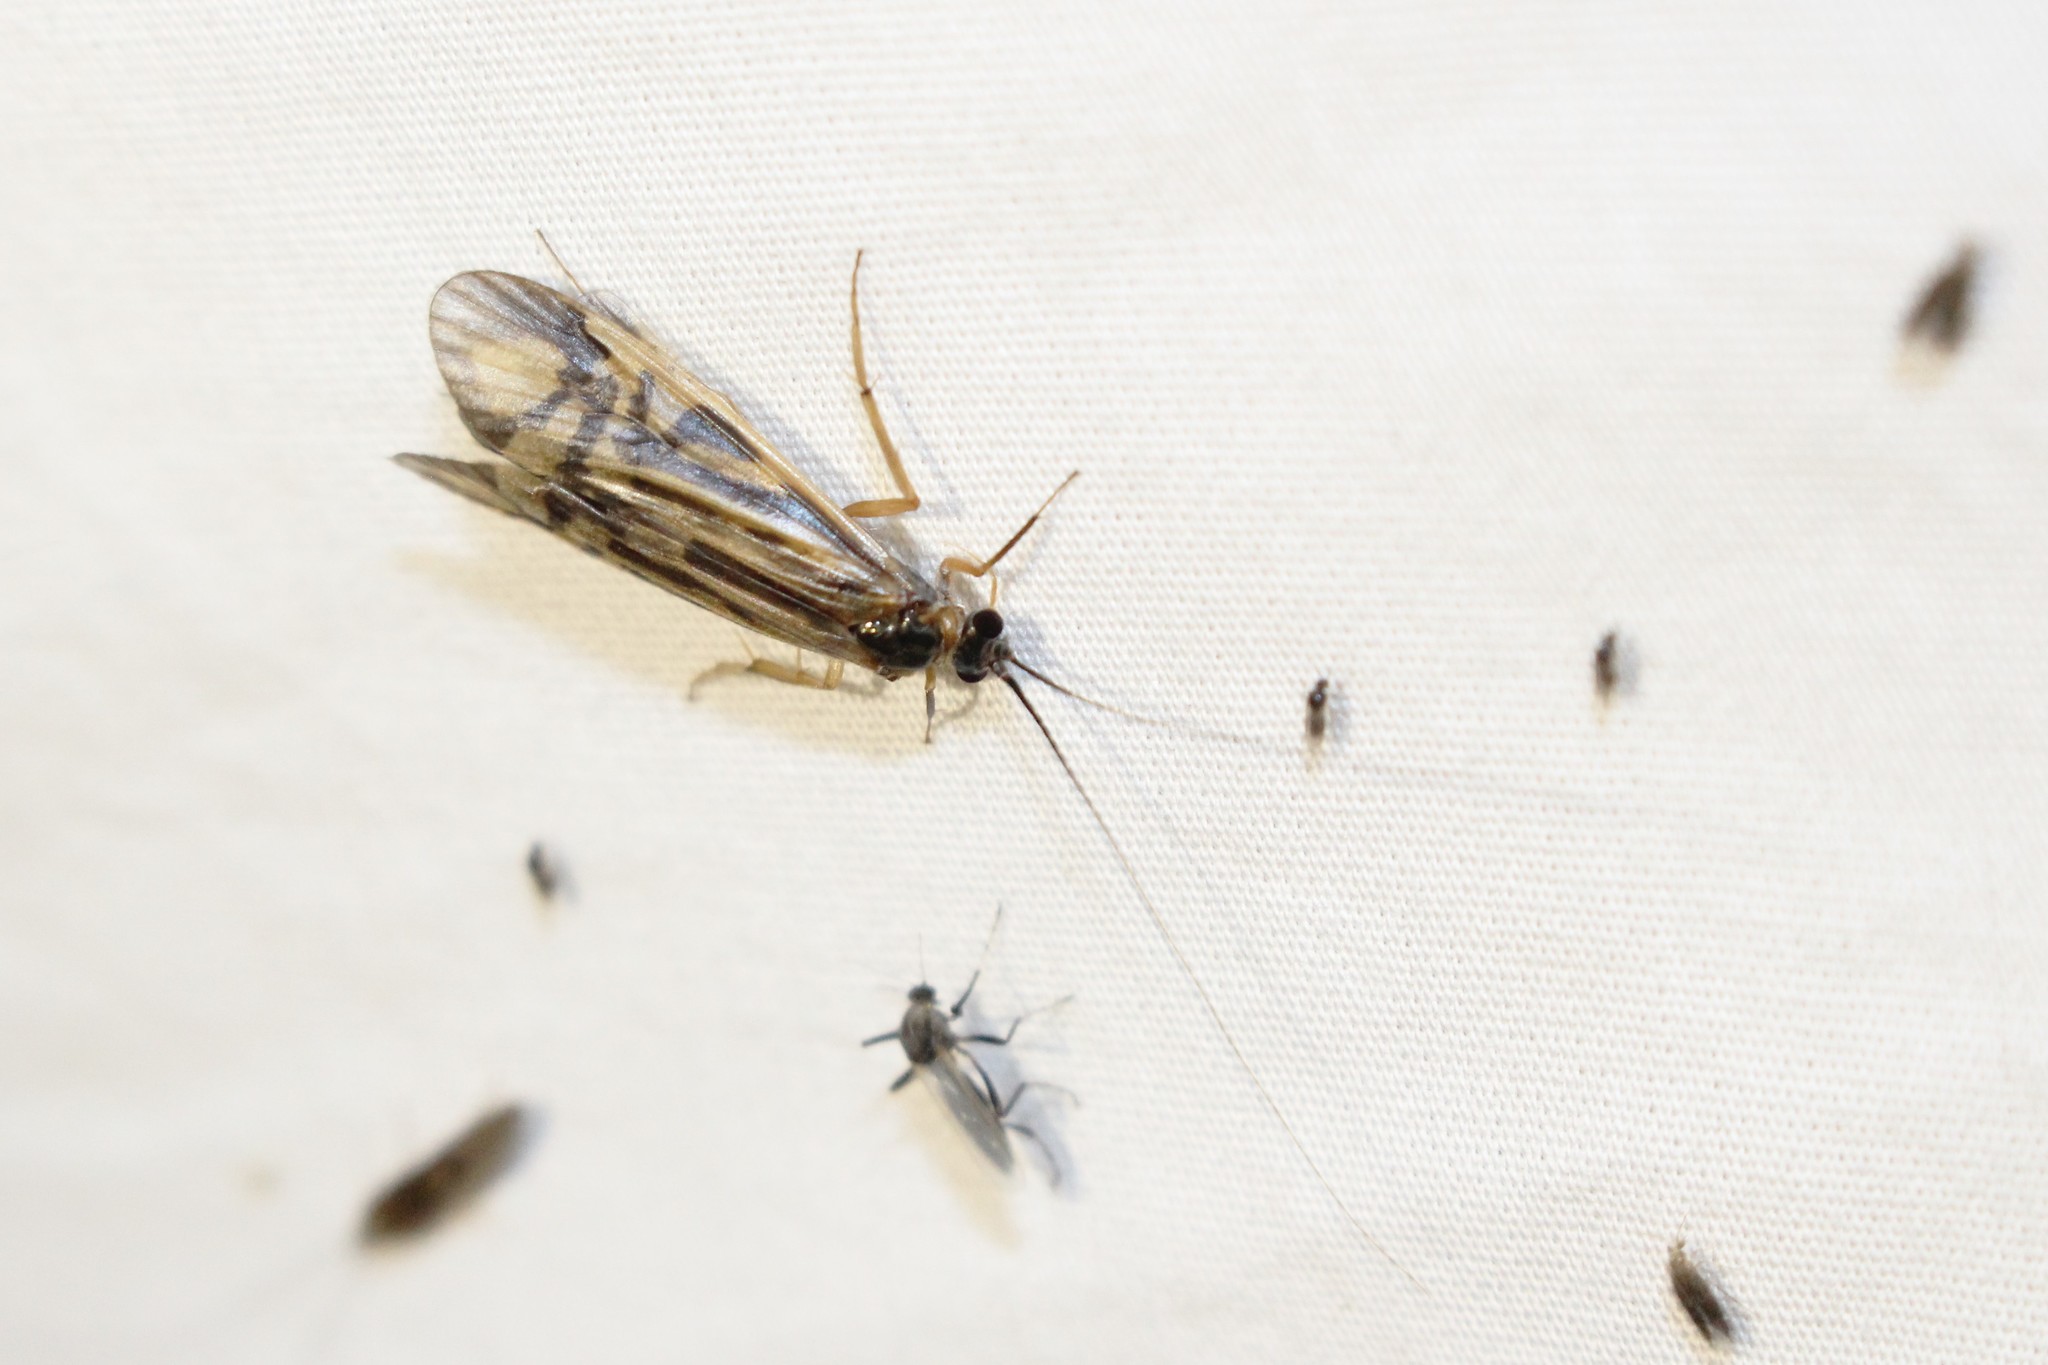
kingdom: Animalia
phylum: Arthropoda
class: Insecta
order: Trichoptera
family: Hydropsychidae
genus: Macrostemum
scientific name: Macrostemum zebratum
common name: Zebra caddisfly
